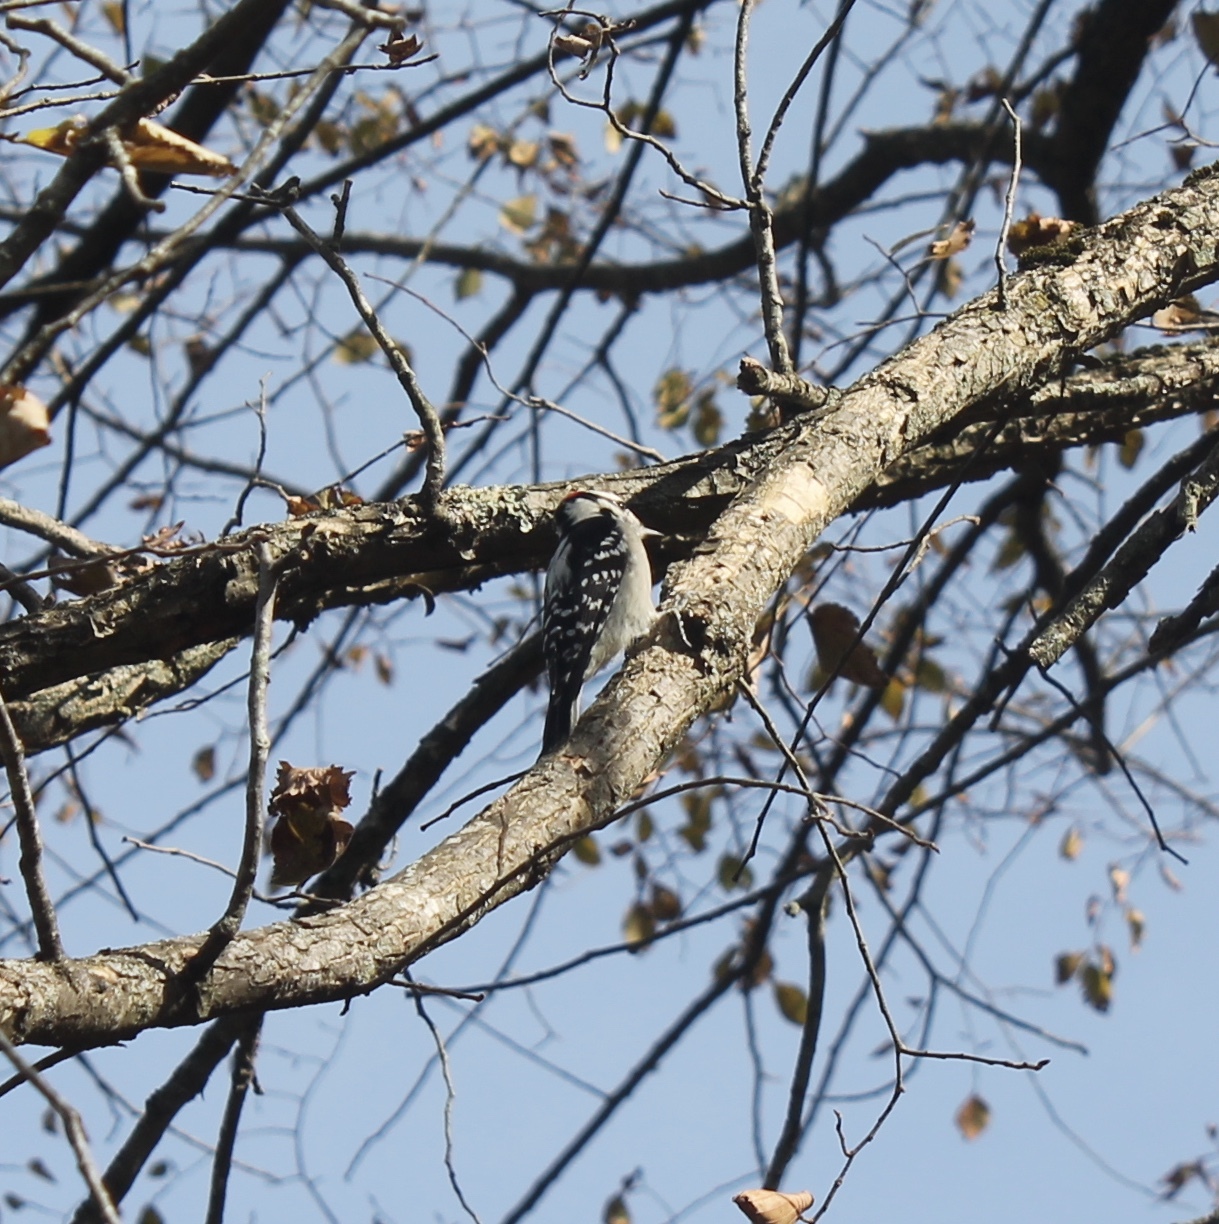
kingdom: Animalia
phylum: Chordata
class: Aves
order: Piciformes
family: Picidae
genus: Dryobates
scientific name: Dryobates pubescens
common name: Downy woodpecker
